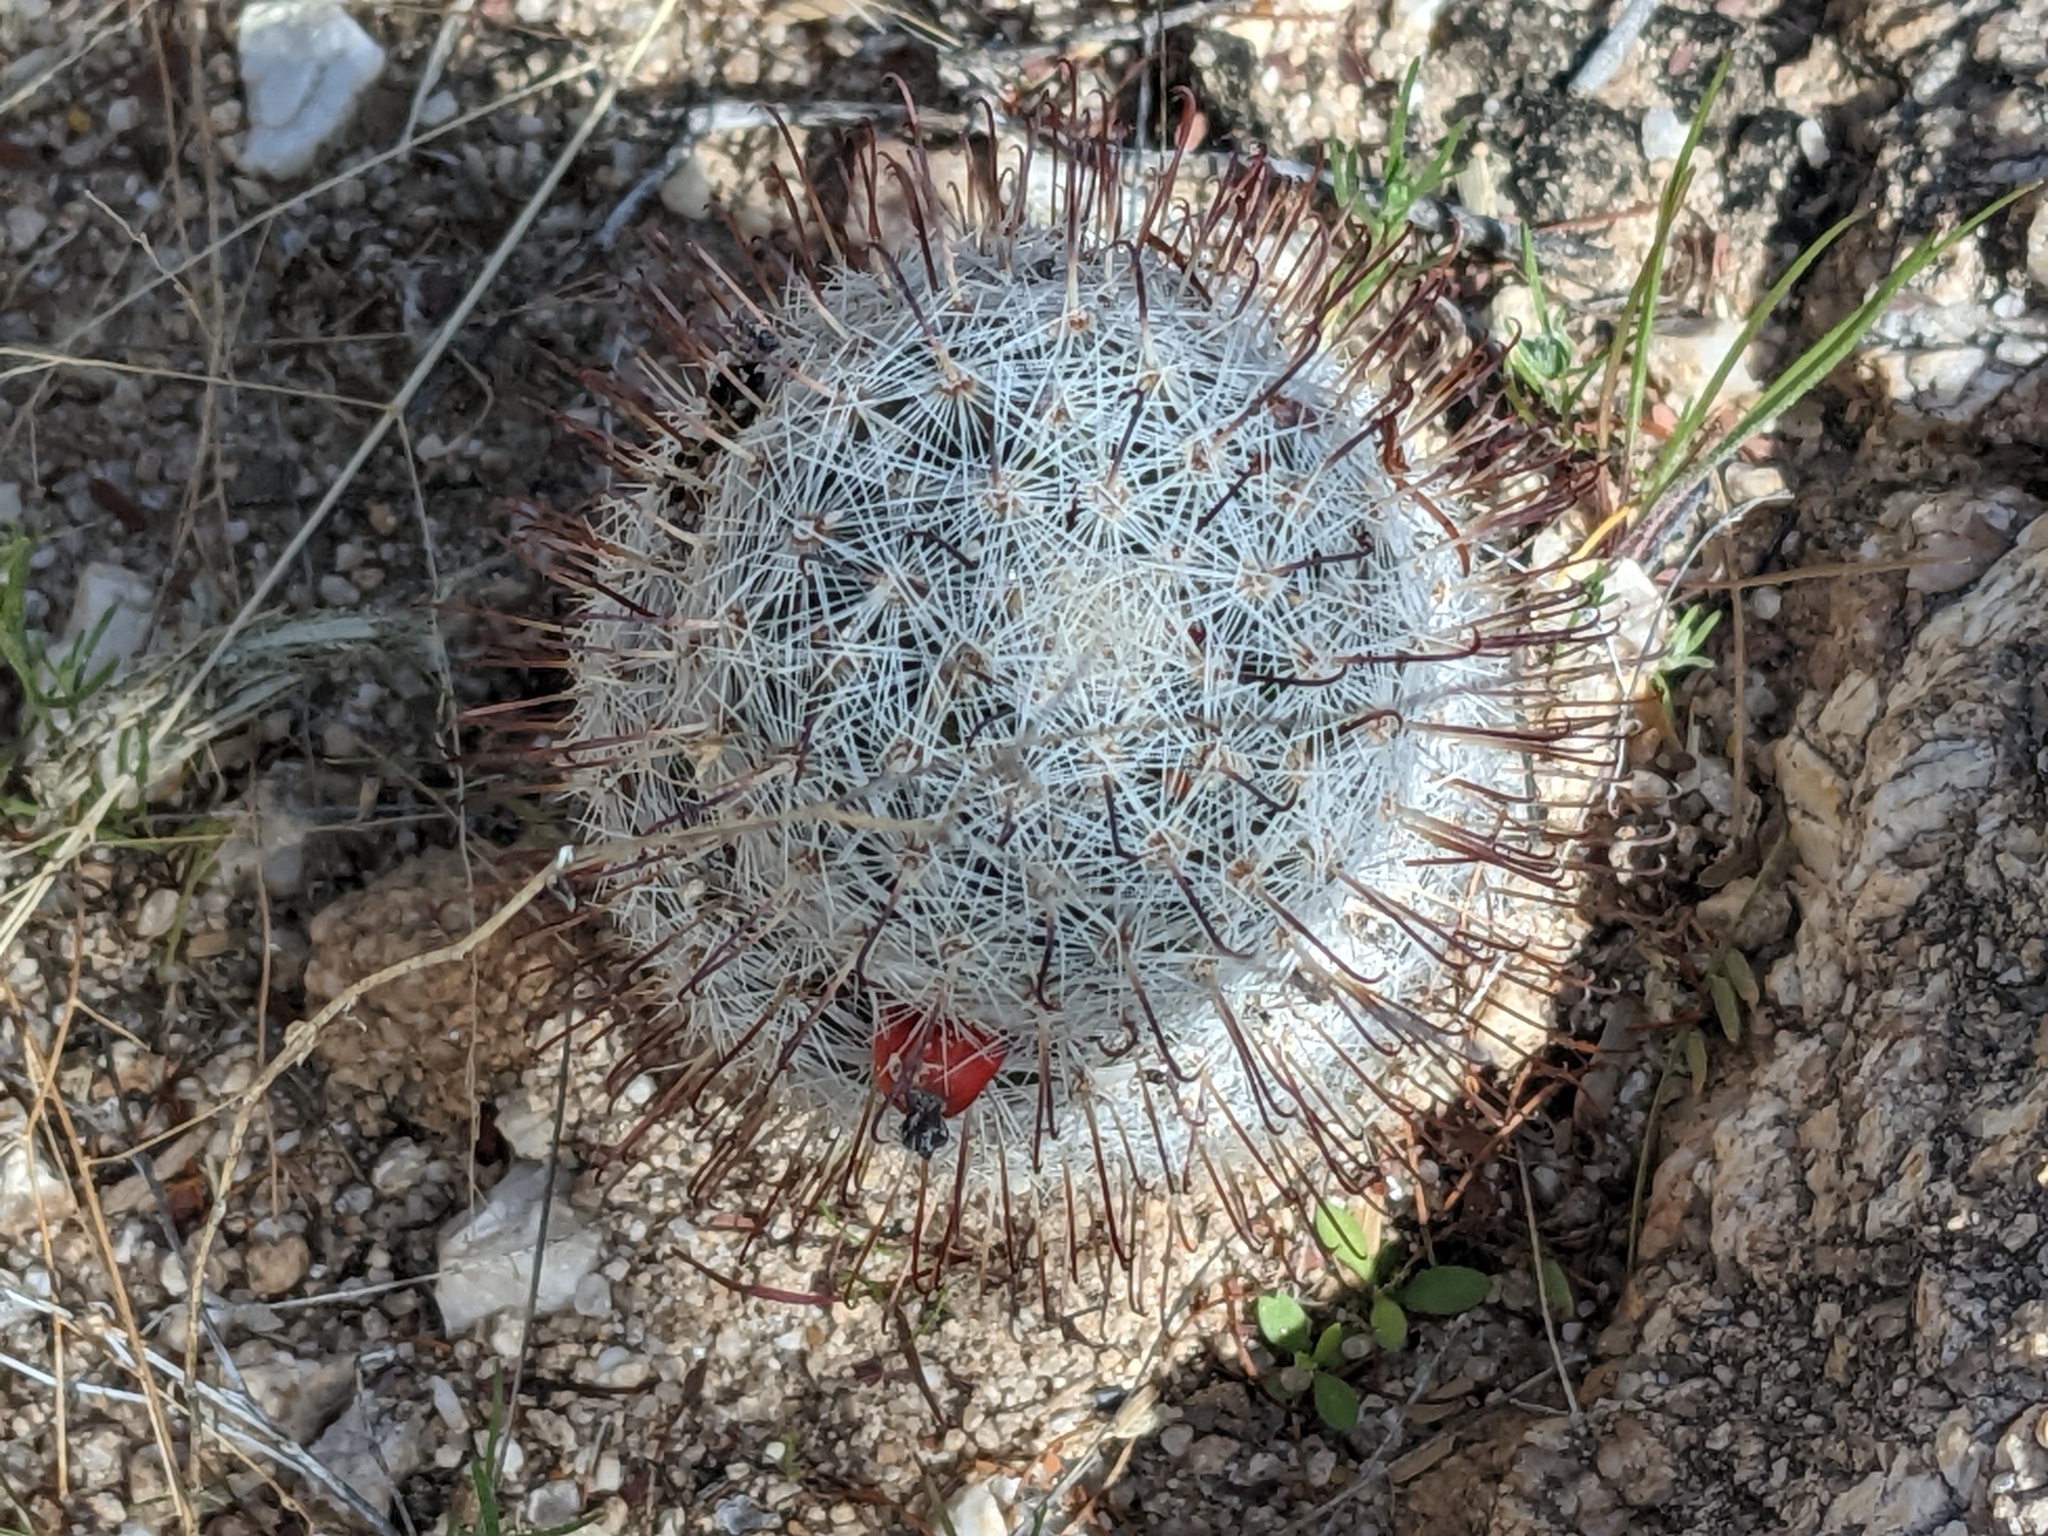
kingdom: Plantae
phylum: Tracheophyta
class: Magnoliopsida
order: Caryophyllales
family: Cactaceae
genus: Cochemiea
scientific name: Cochemiea grahamii
